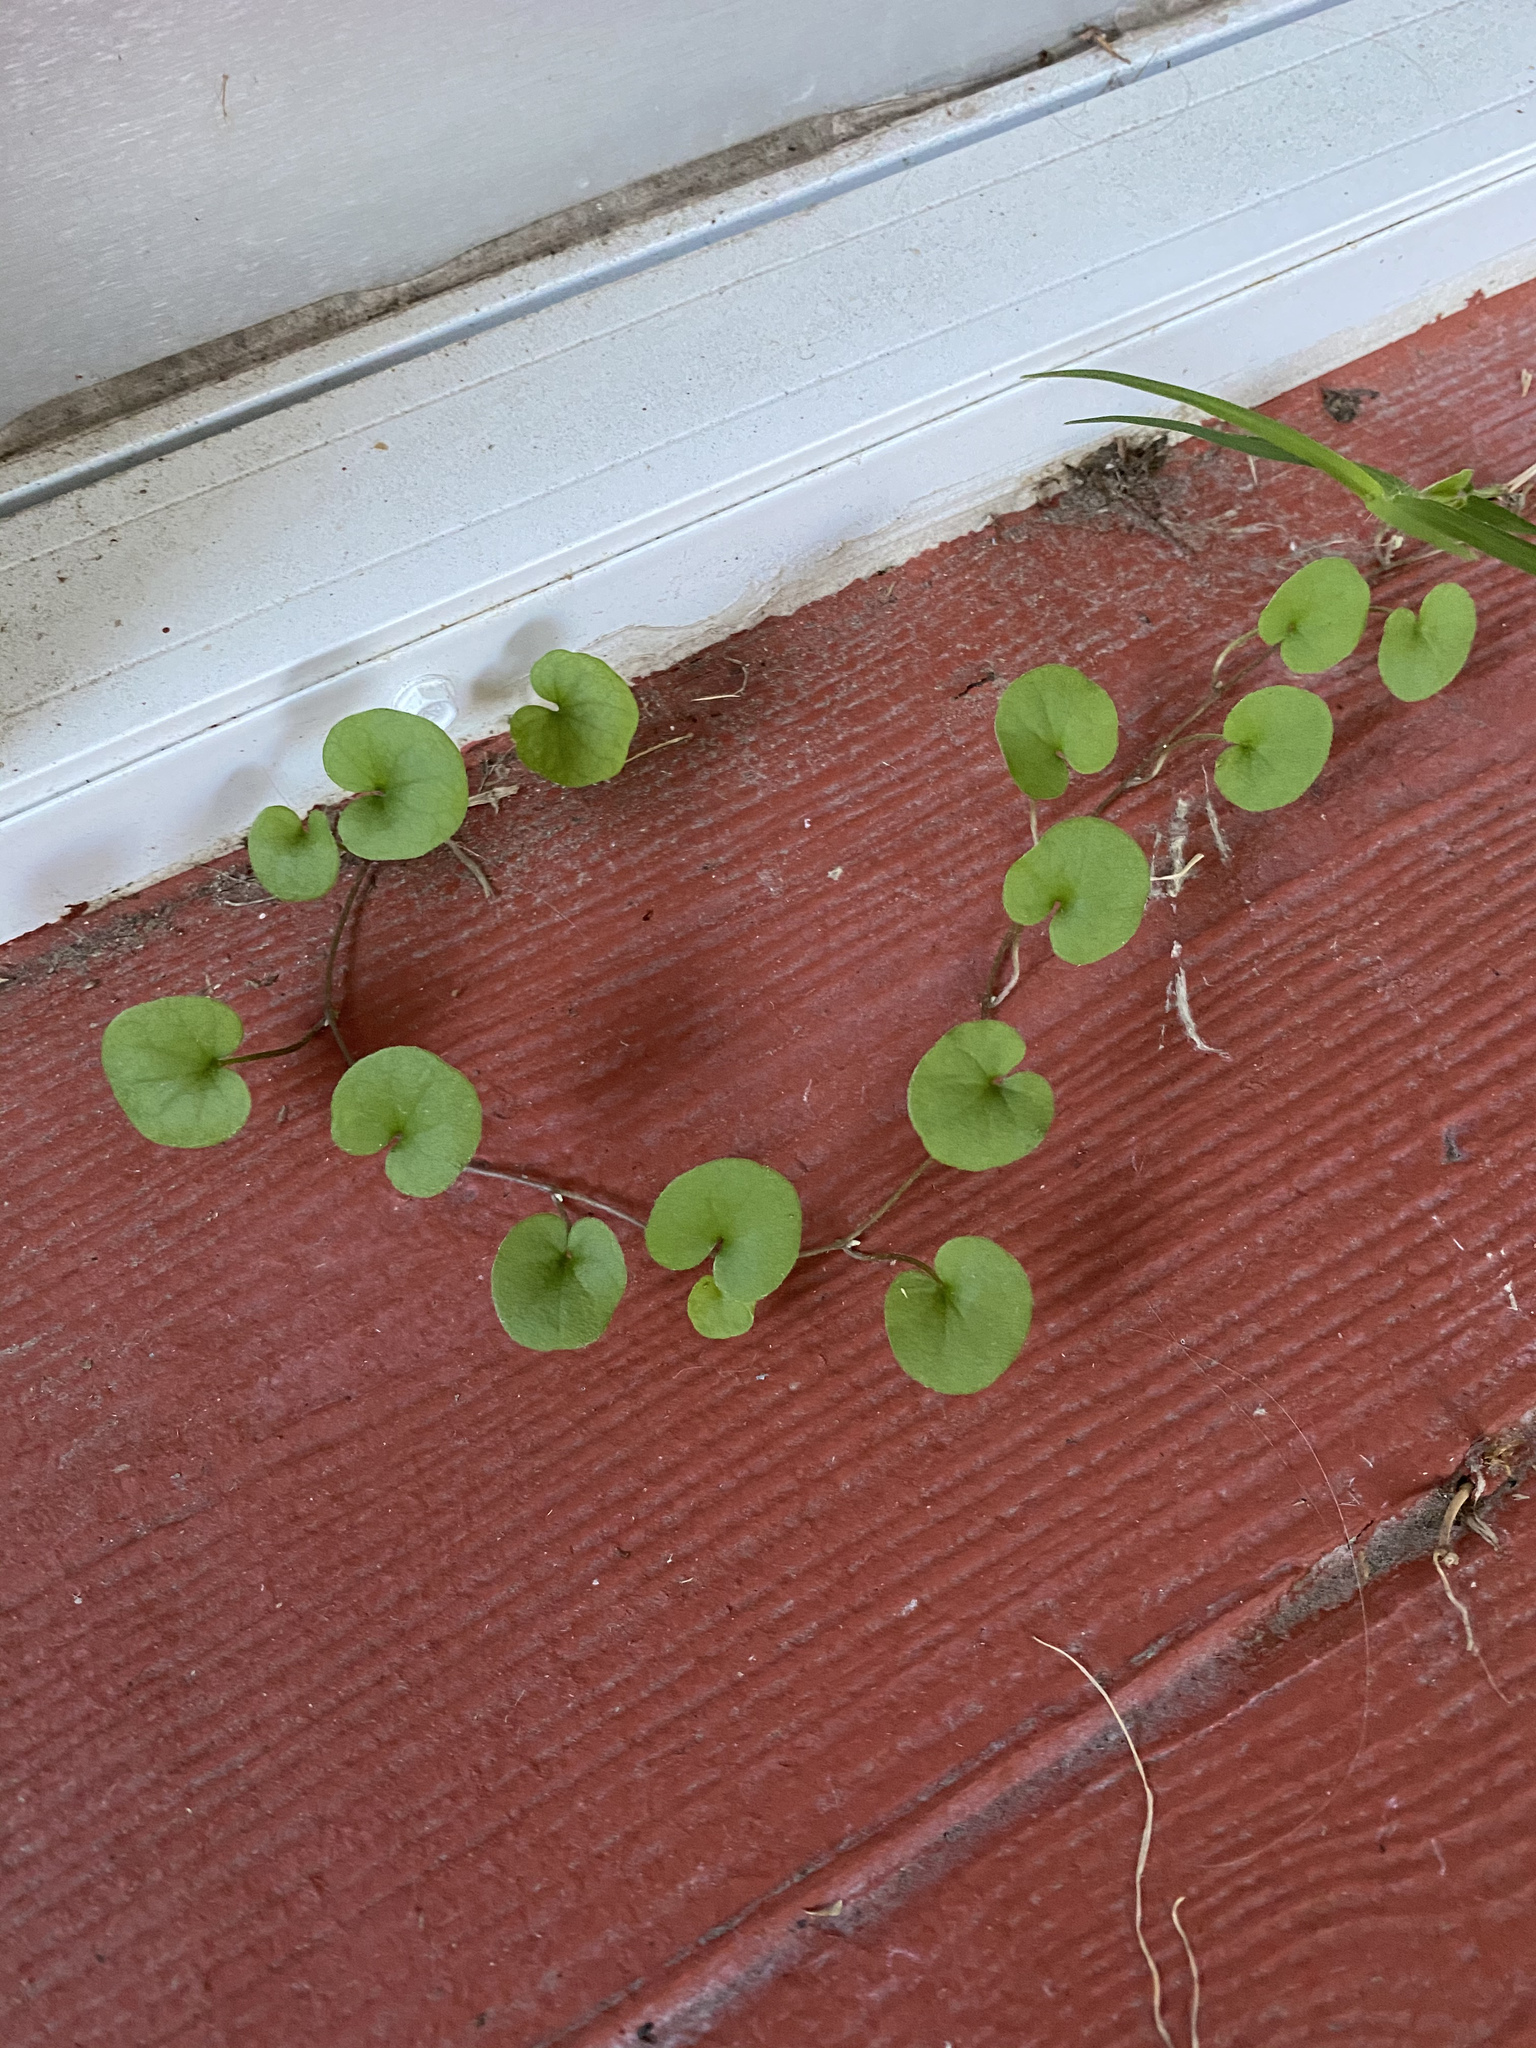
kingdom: Plantae
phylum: Tracheophyta
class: Magnoliopsida
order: Solanales
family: Convolvulaceae
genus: Dichondra
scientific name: Dichondra carolinensis
